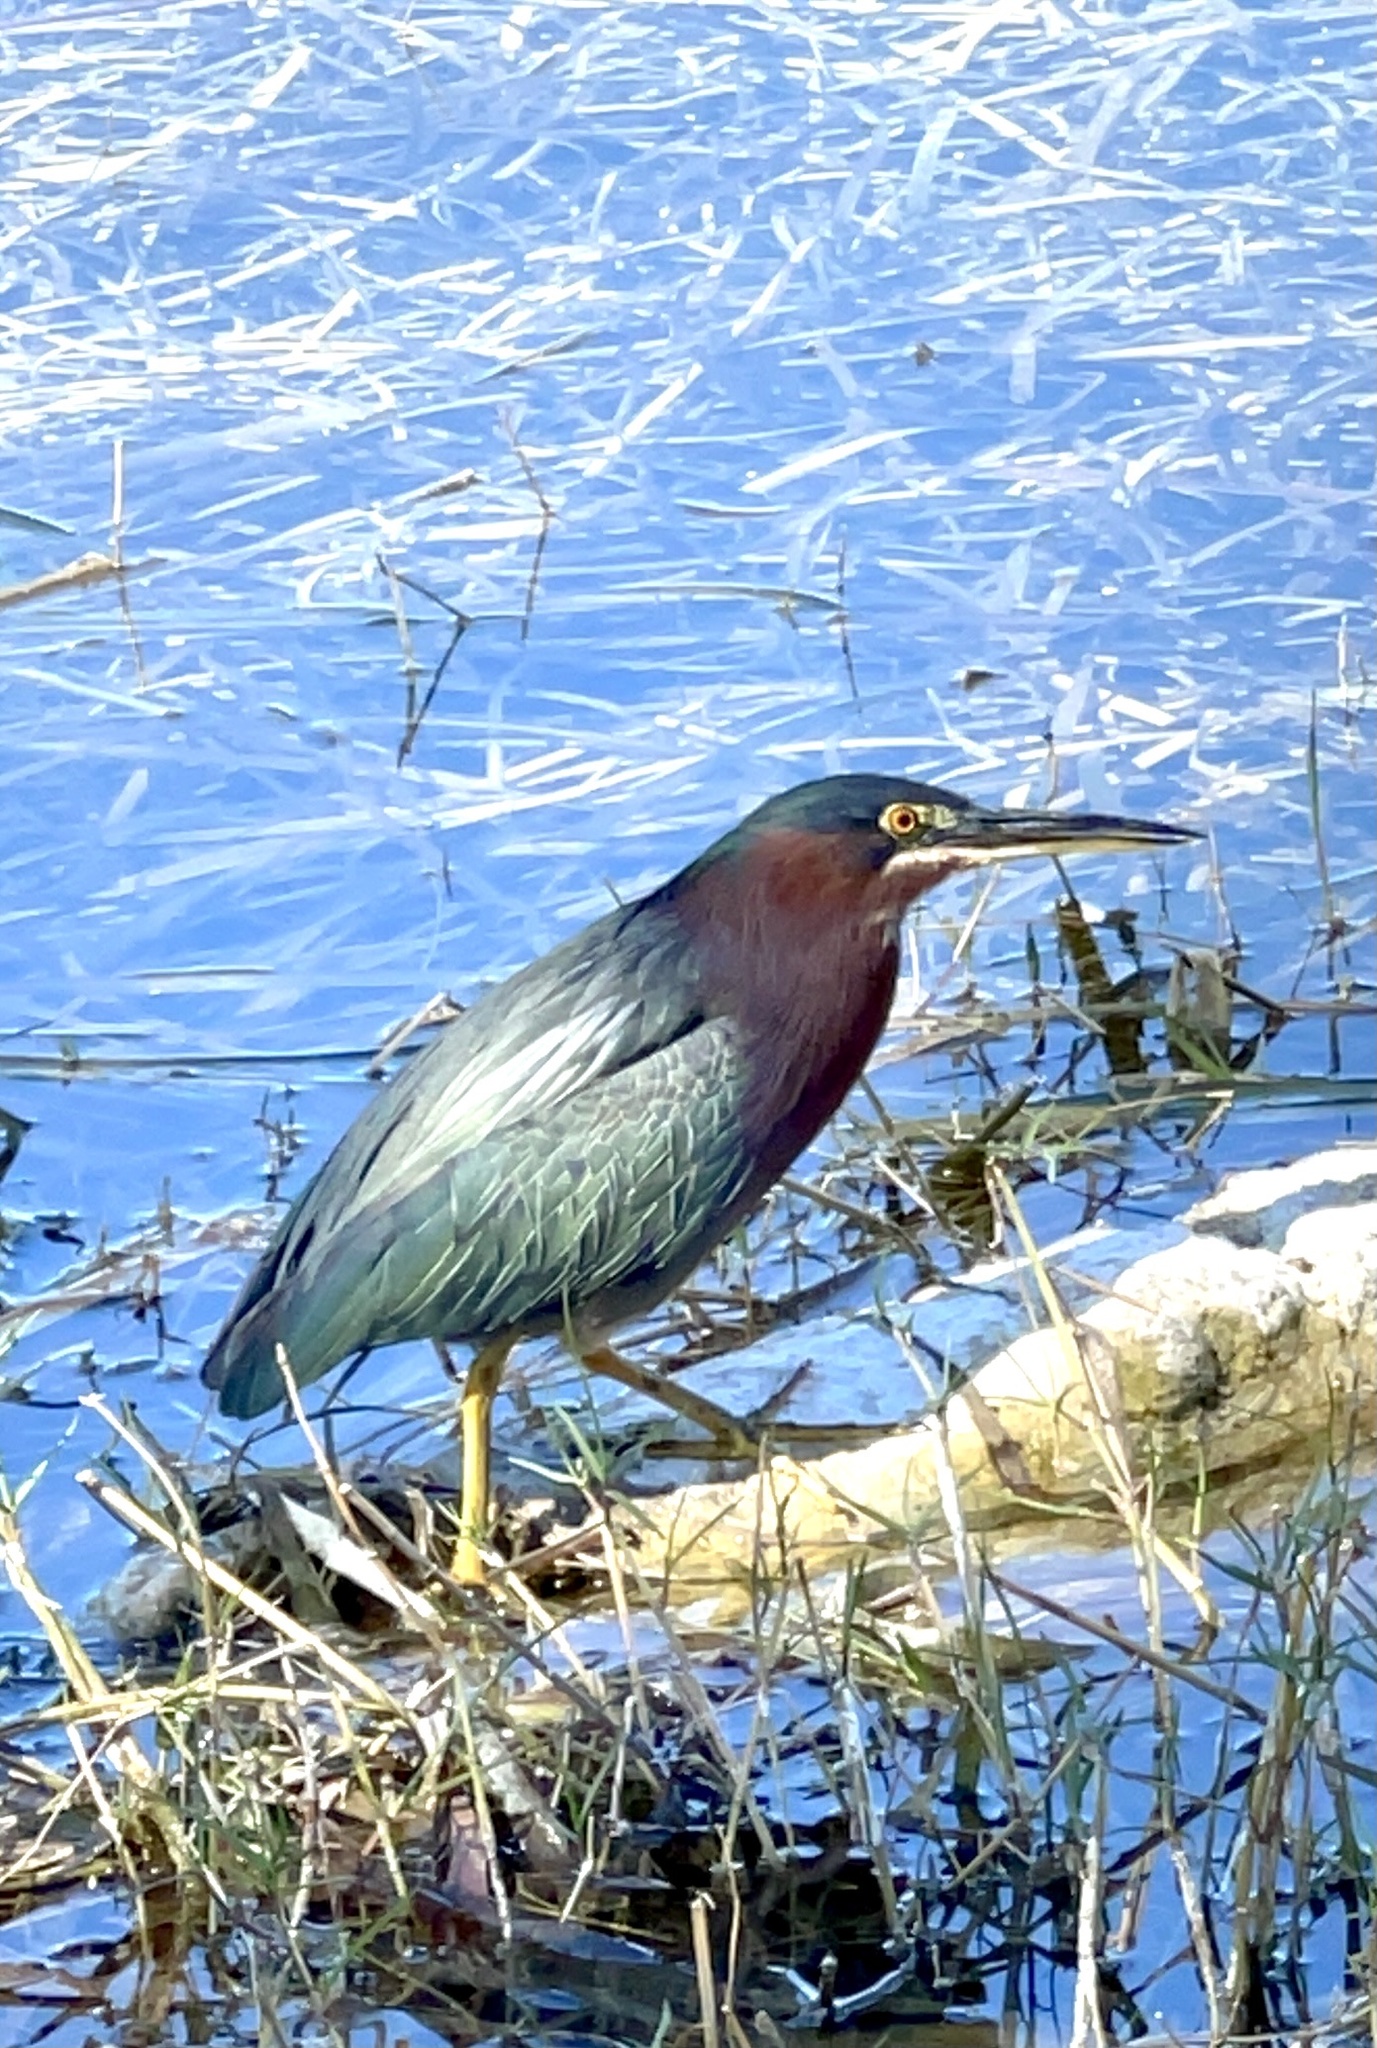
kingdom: Animalia
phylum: Chordata
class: Aves
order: Pelecaniformes
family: Ardeidae
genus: Butorides
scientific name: Butorides virescens
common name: Green heron
